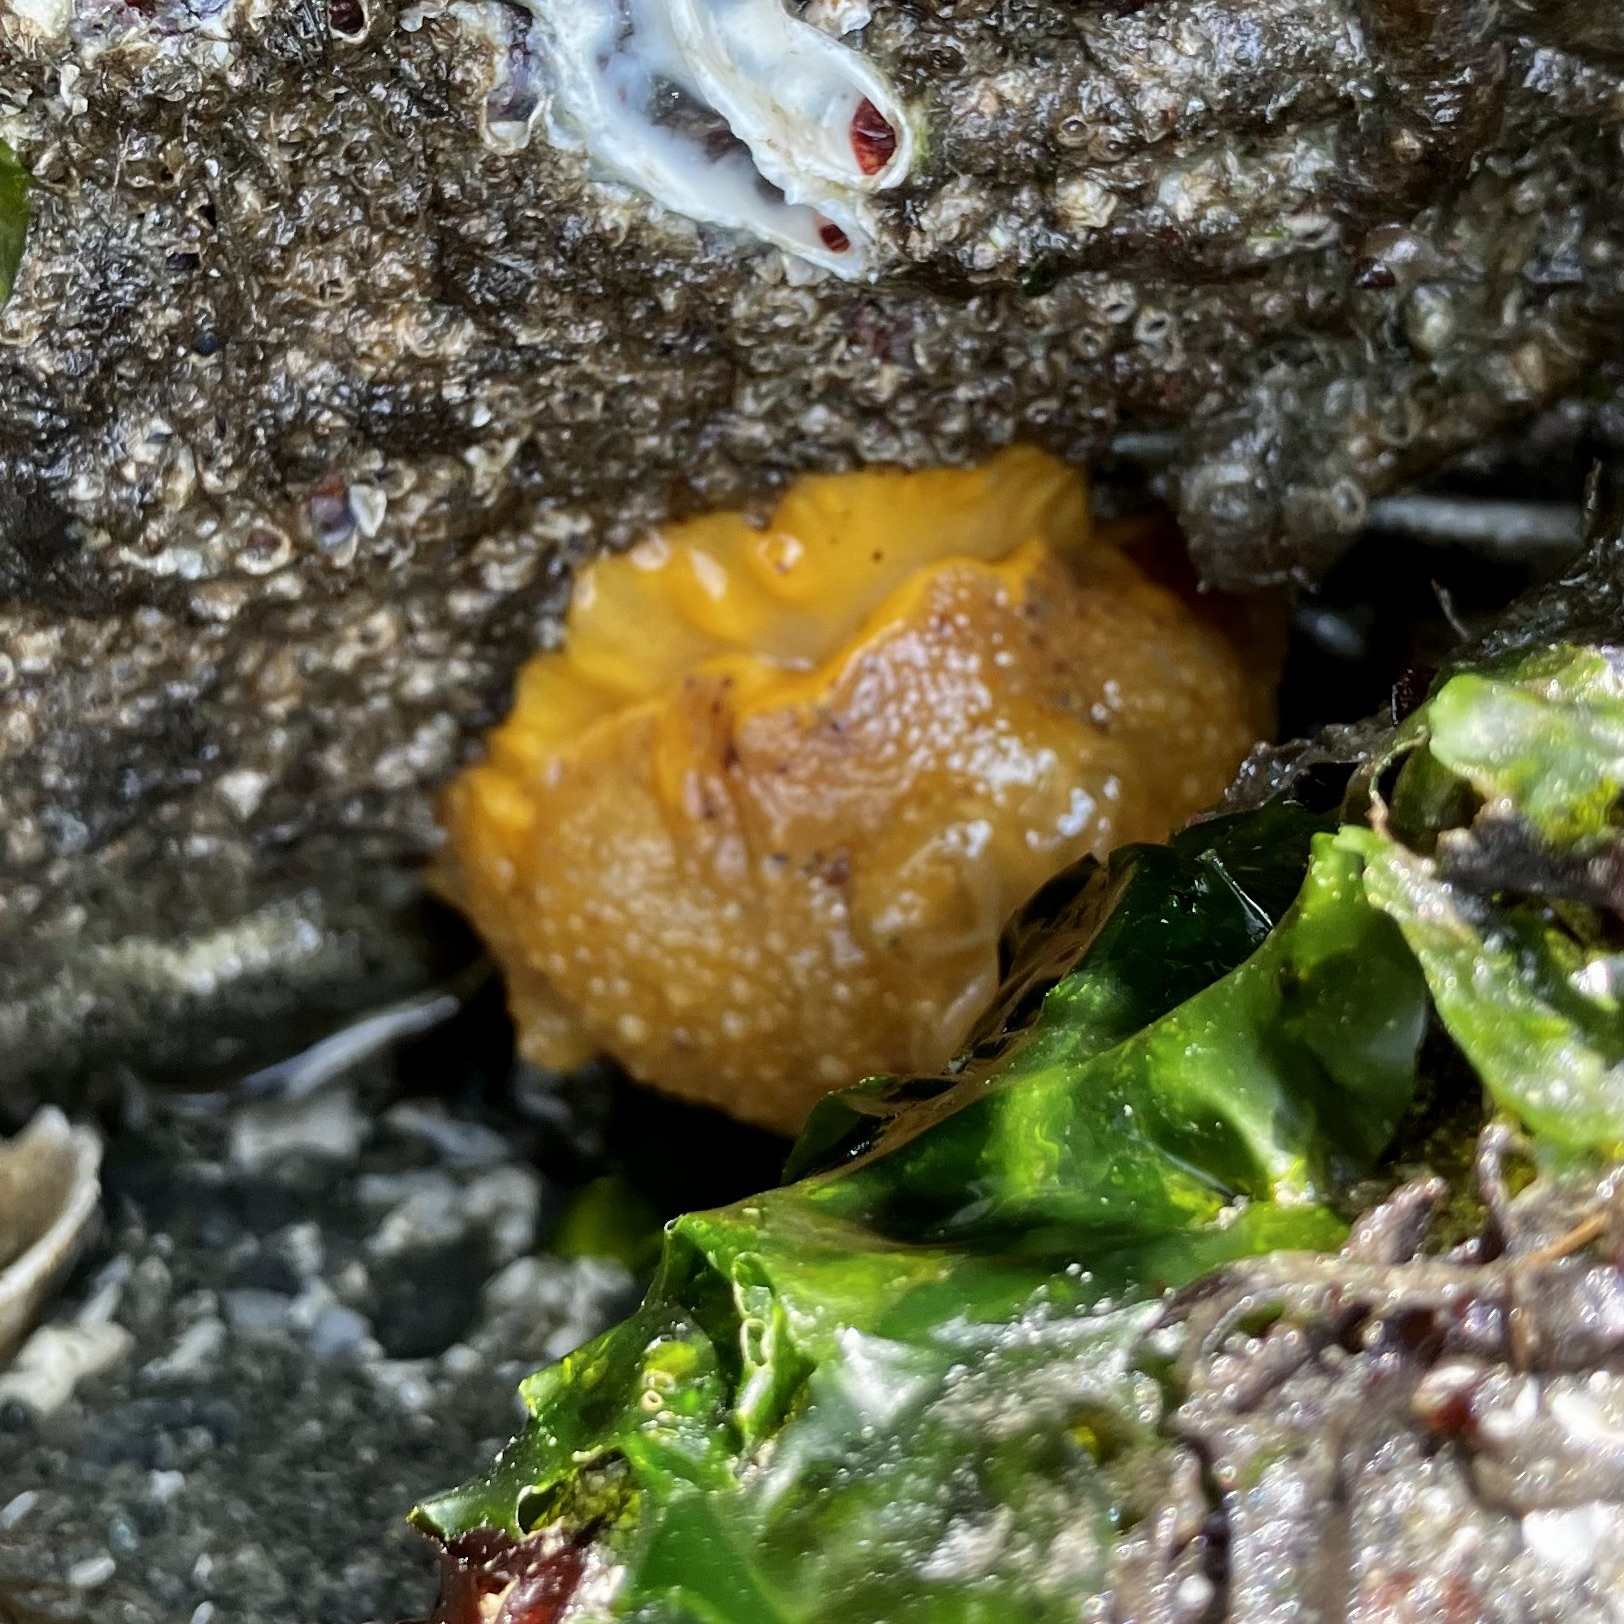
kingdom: Animalia
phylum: Mollusca
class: Gastropoda
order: Nudibranchia
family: Dorididae
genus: Doris
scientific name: Doris montereyensis
